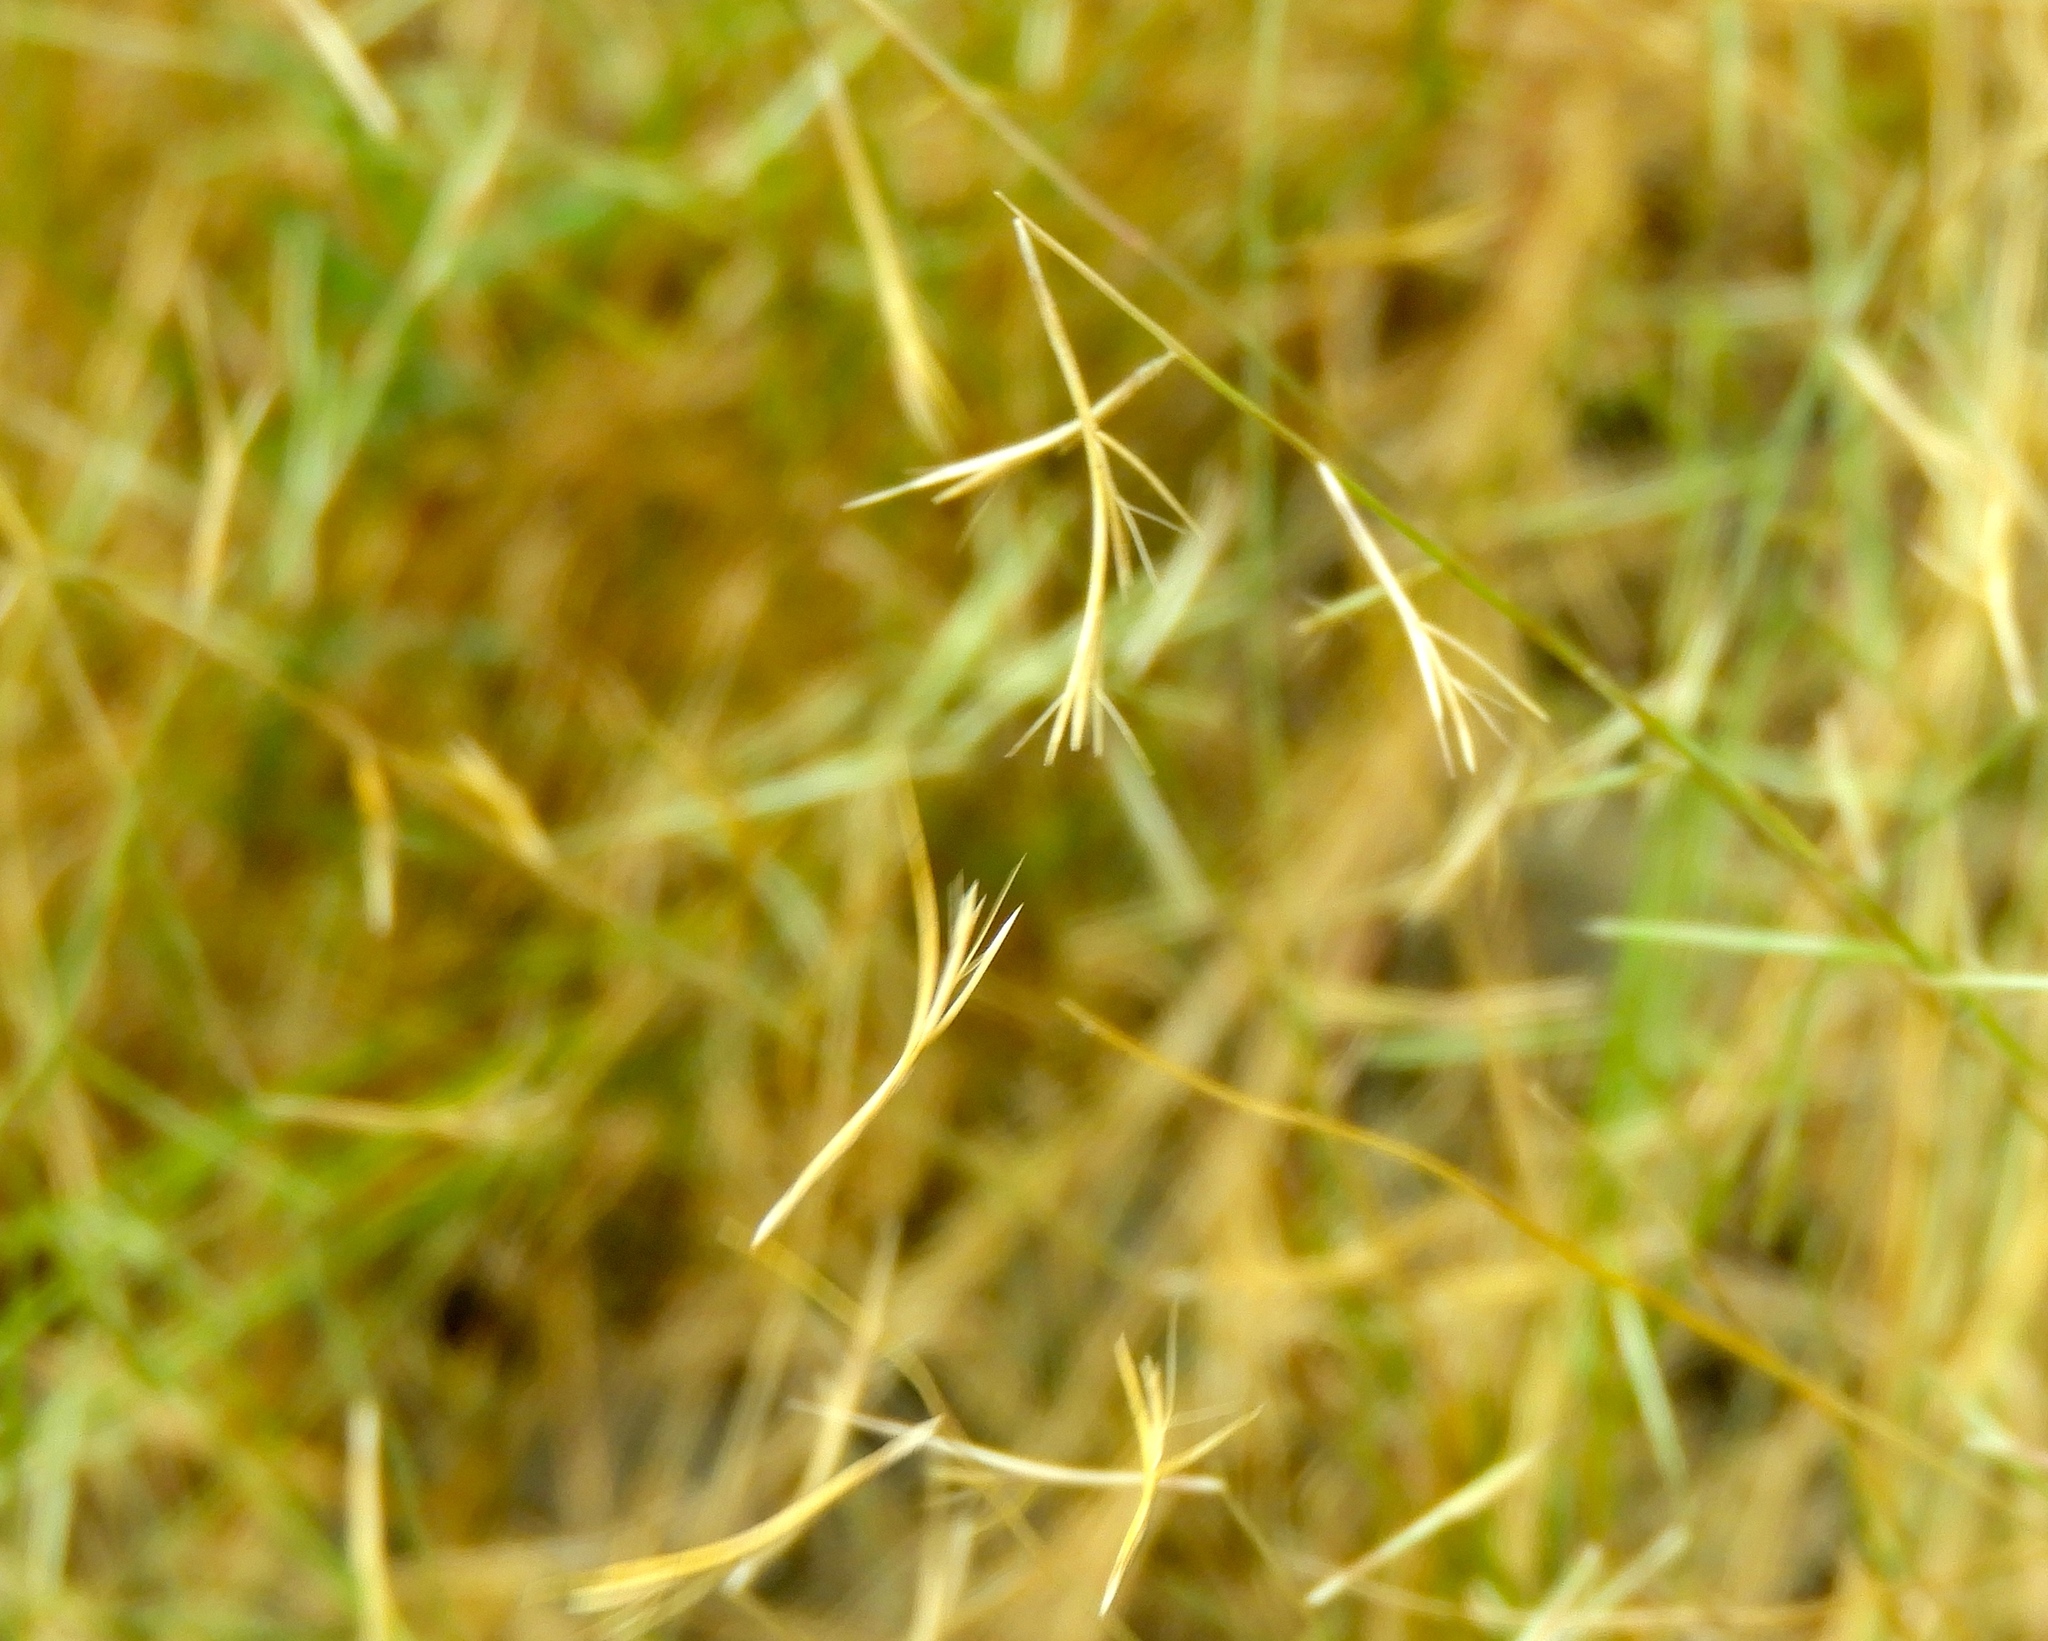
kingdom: Plantae
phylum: Tracheophyta
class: Liliopsida
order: Poales
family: Poaceae
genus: Bouteloua
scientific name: Bouteloua
